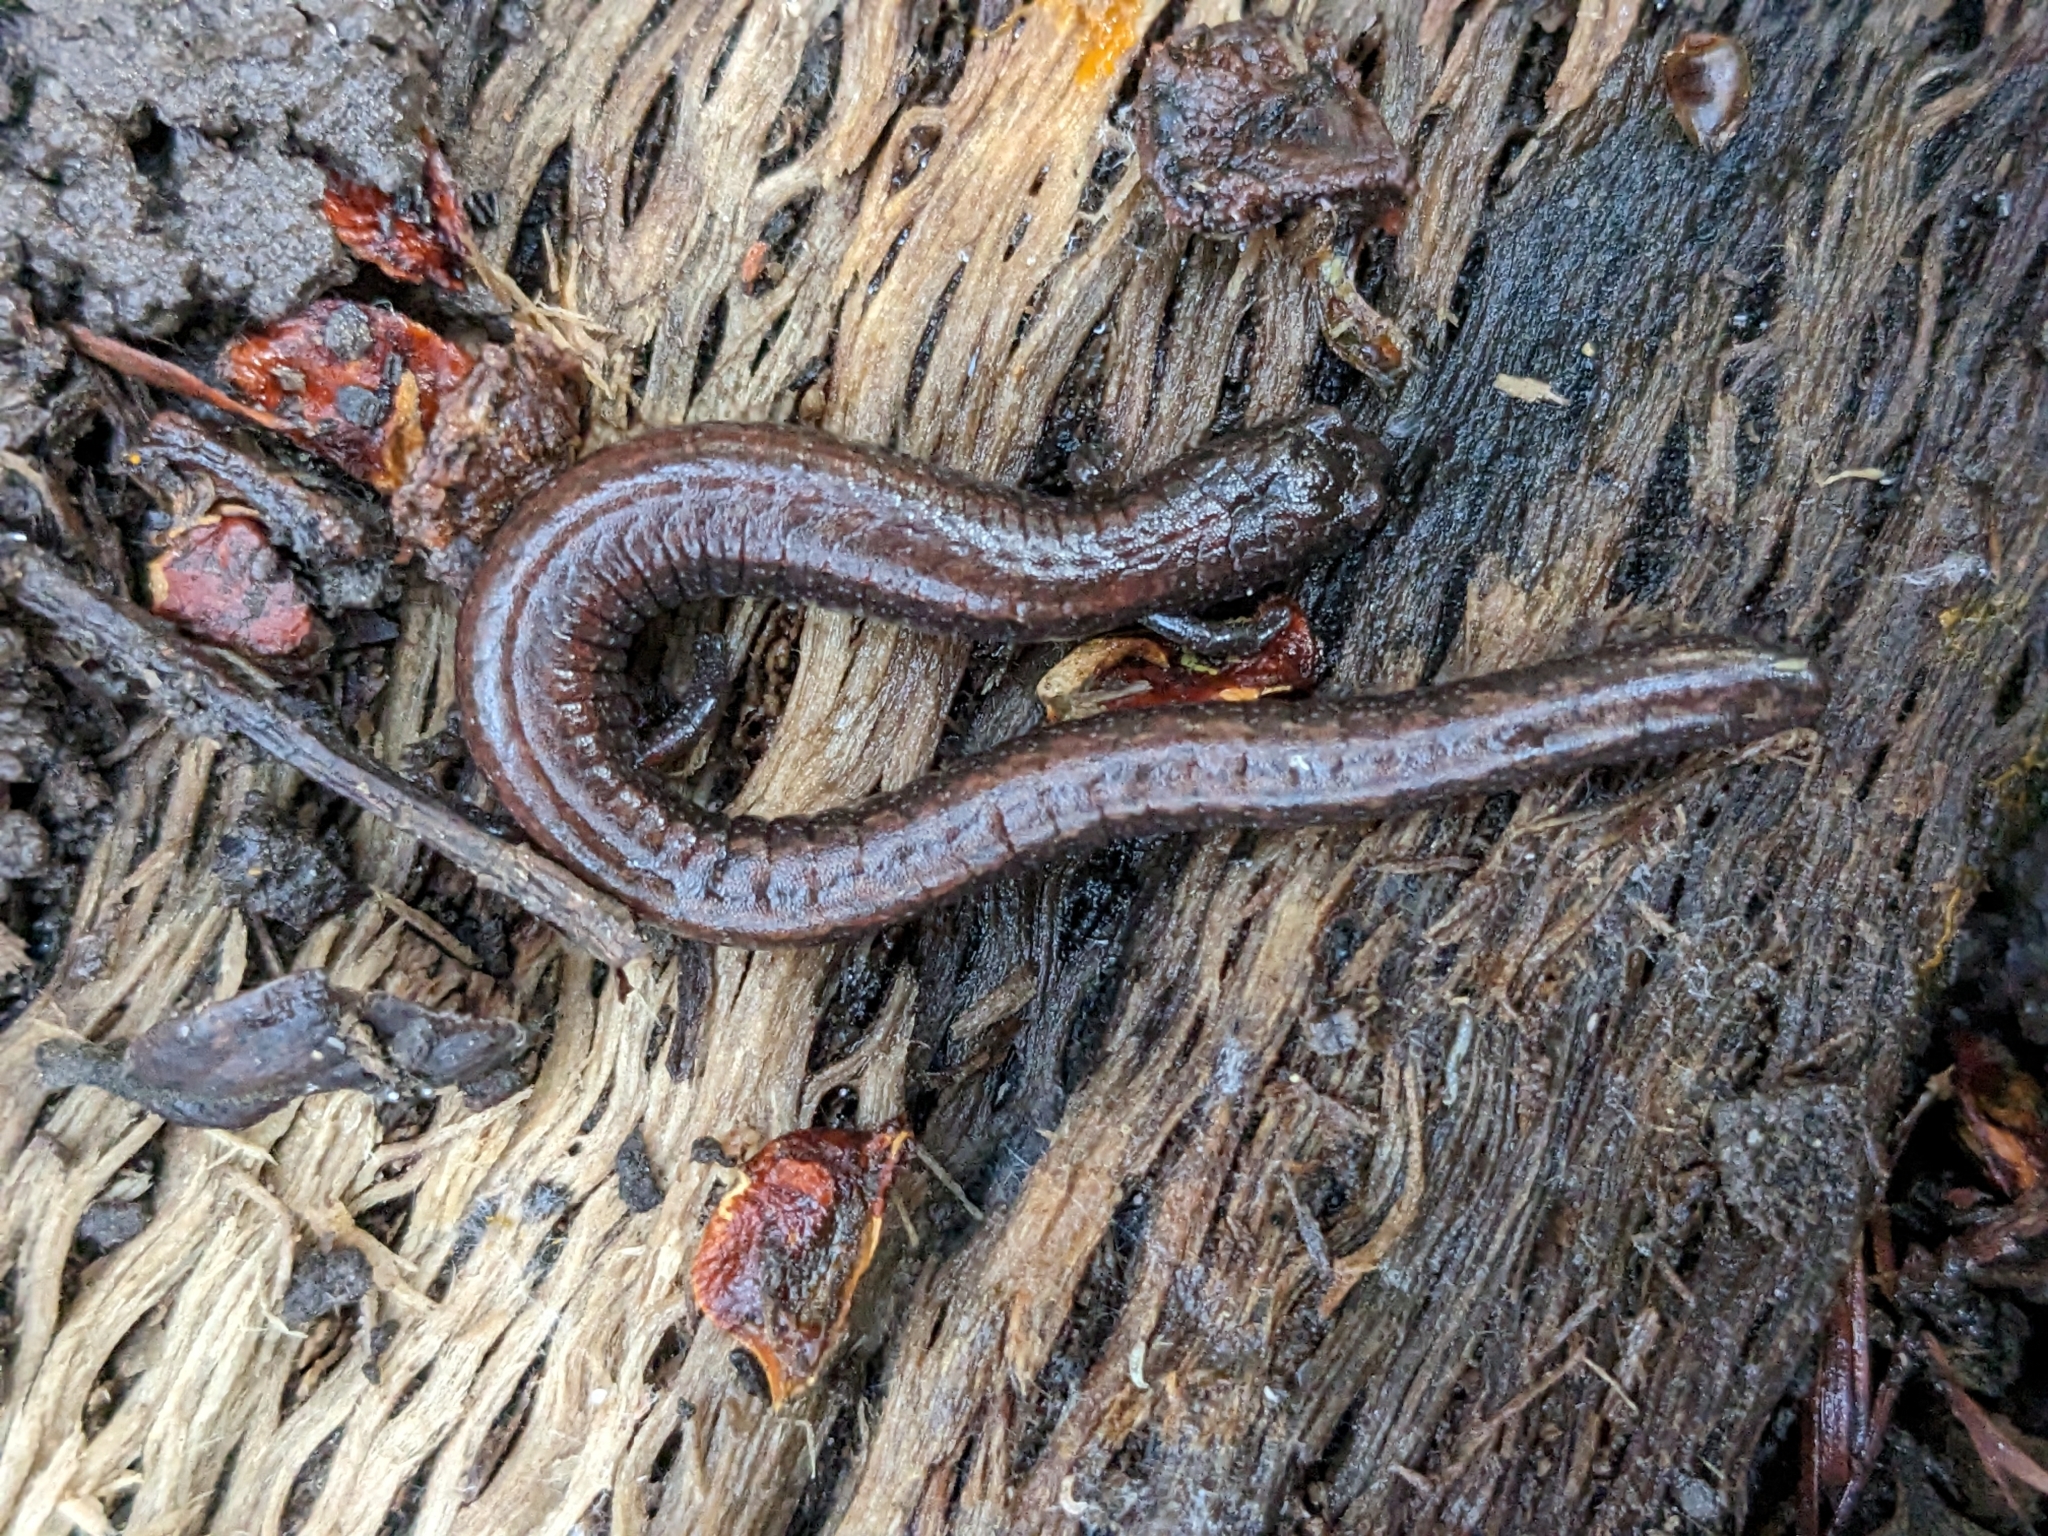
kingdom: Animalia
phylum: Chordata
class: Amphibia
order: Caudata
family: Plethodontidae
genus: Batrachoseps
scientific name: Batrachoseps attenuatus
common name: California slender salamander
